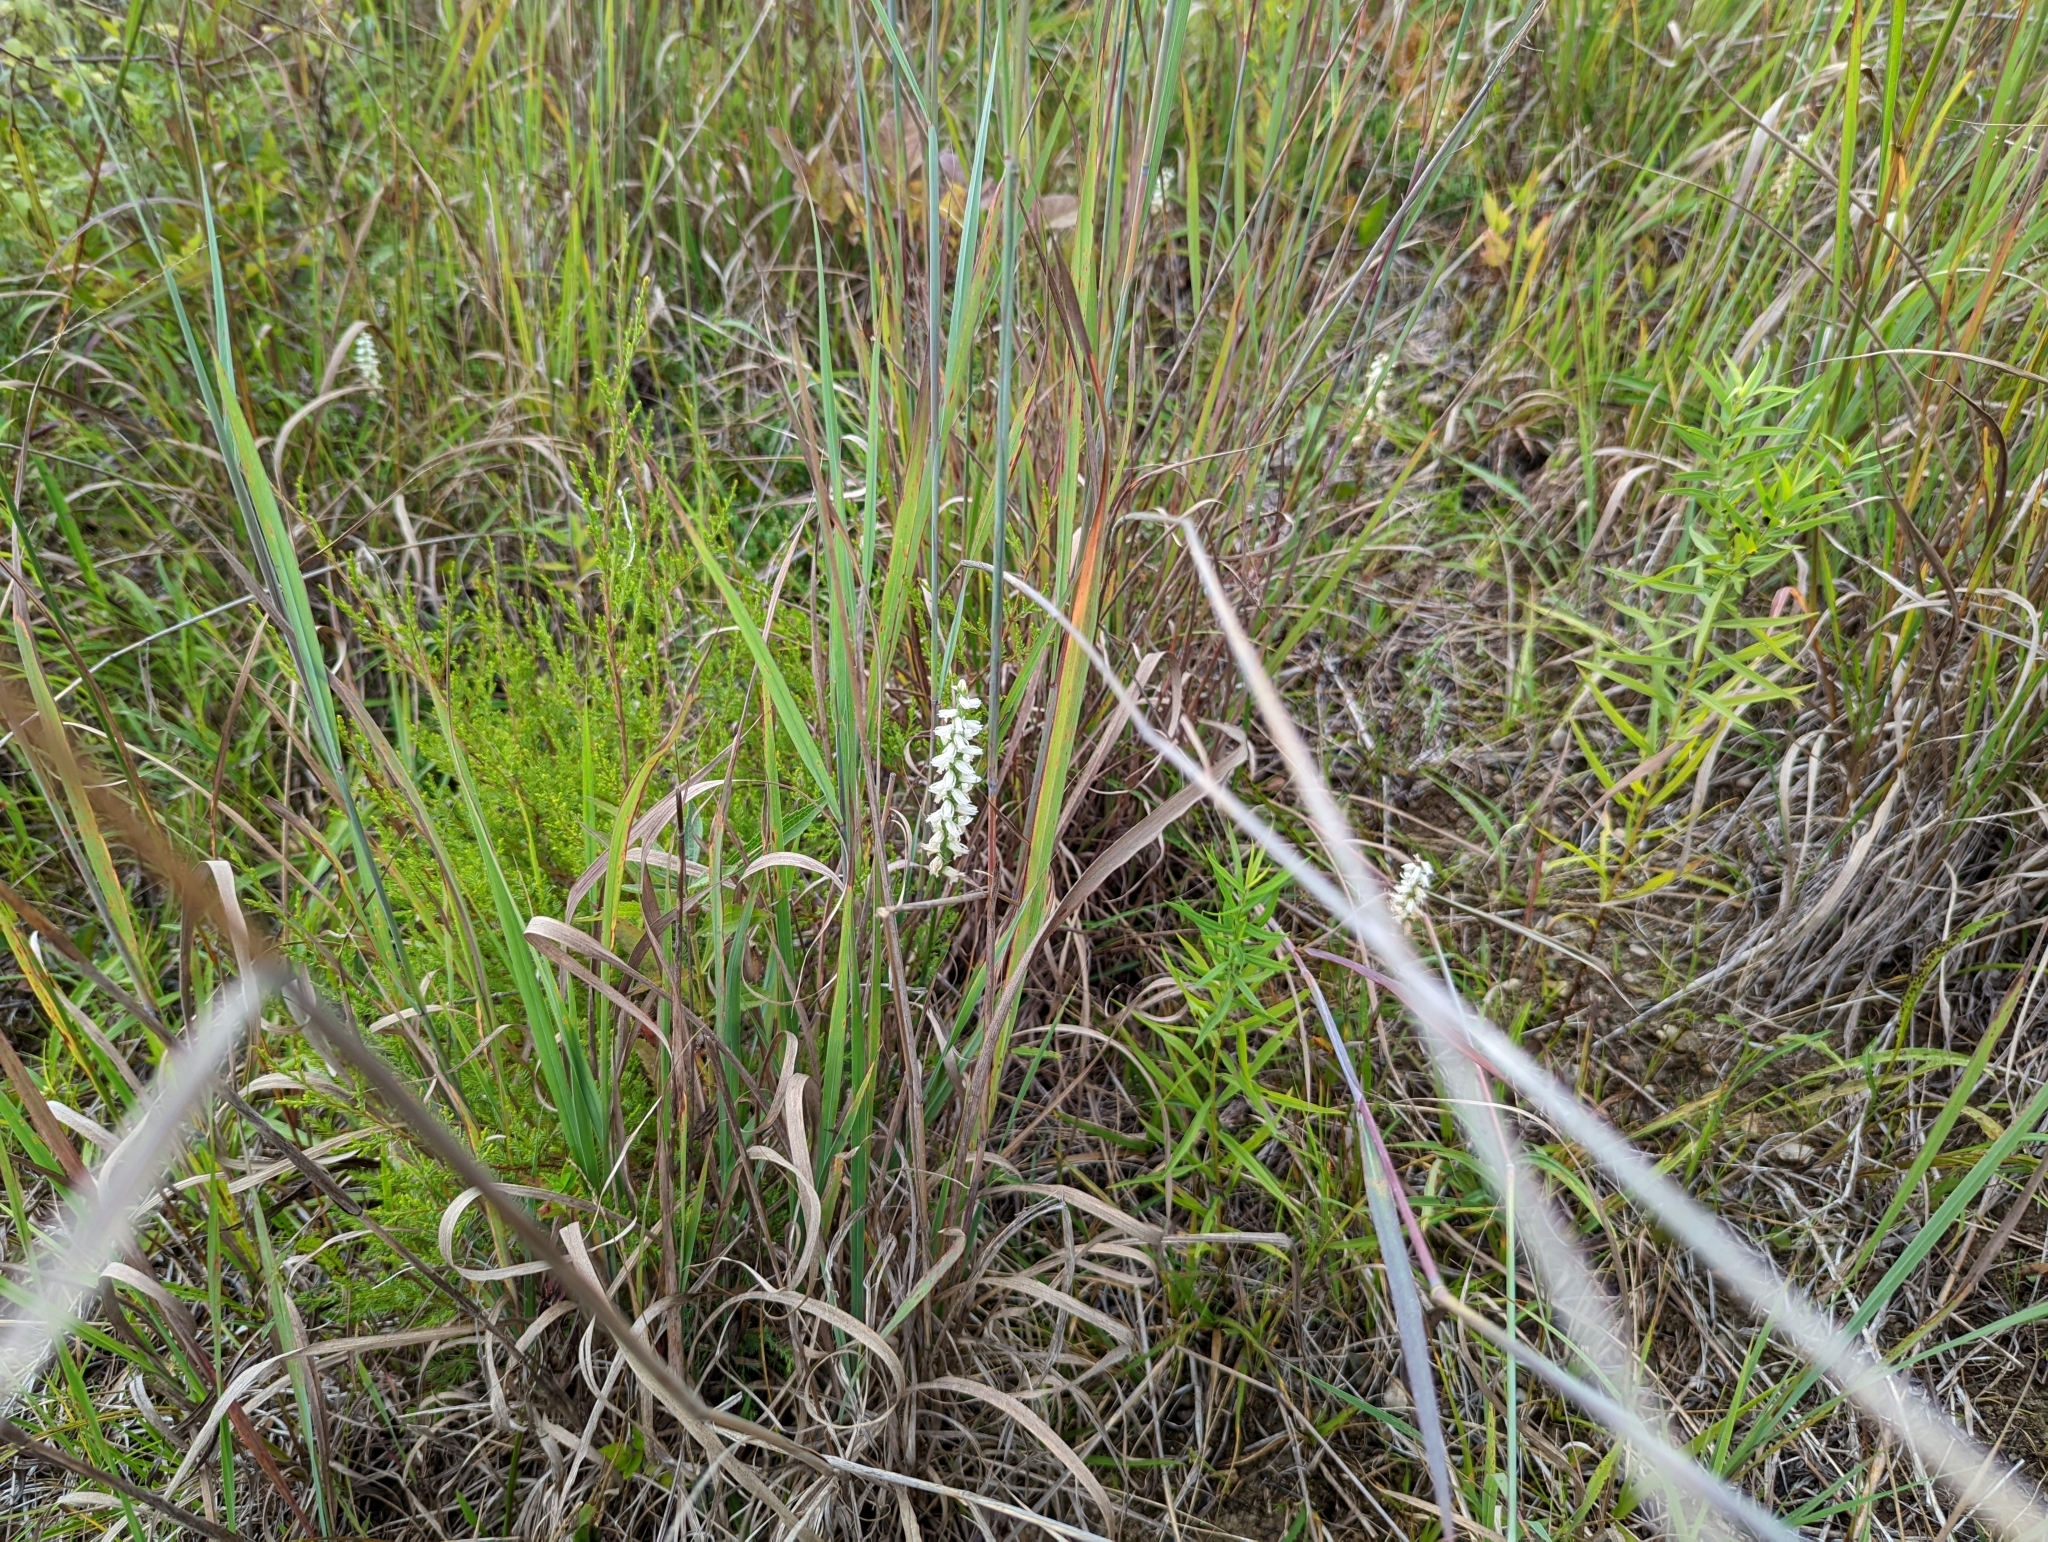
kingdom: Plantae
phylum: Tracheophyta
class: Liliopsida
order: Asparagales
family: Orchidaceae
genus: Spiranthes
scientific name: Spiranthes magnicamporum
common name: Great plains ladies'-tresses
